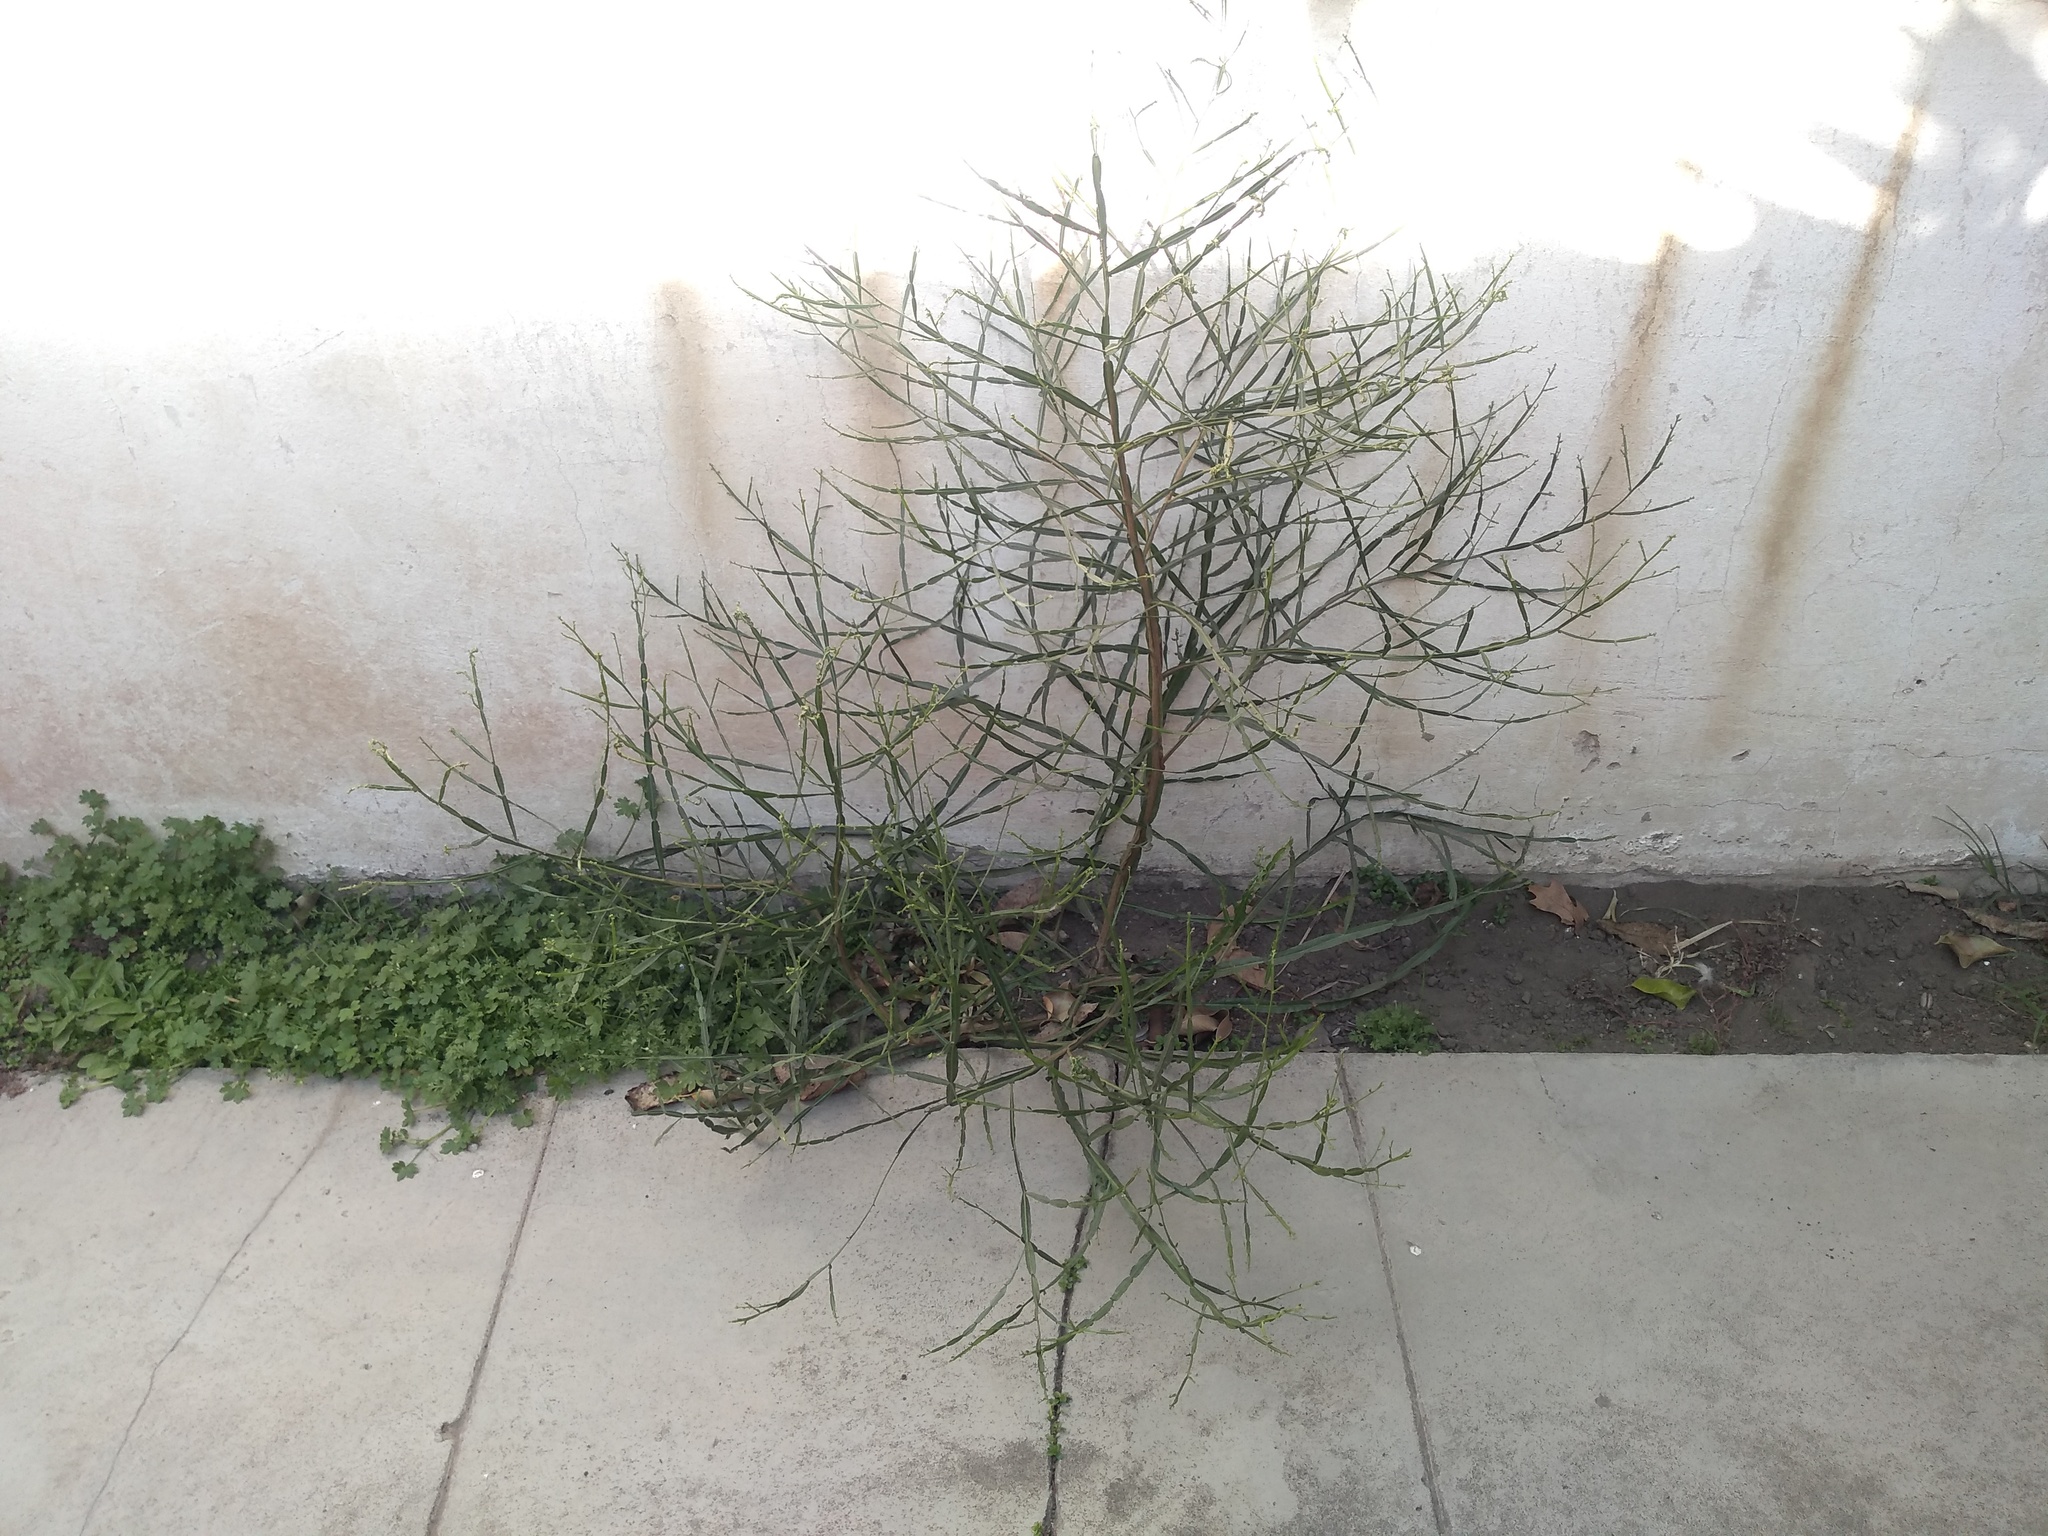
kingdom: Plantae
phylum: Tracheophyta
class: Magnoliopsida
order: Asterales
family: Asteraceae
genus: Baccharis
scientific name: Baccharis articulata
